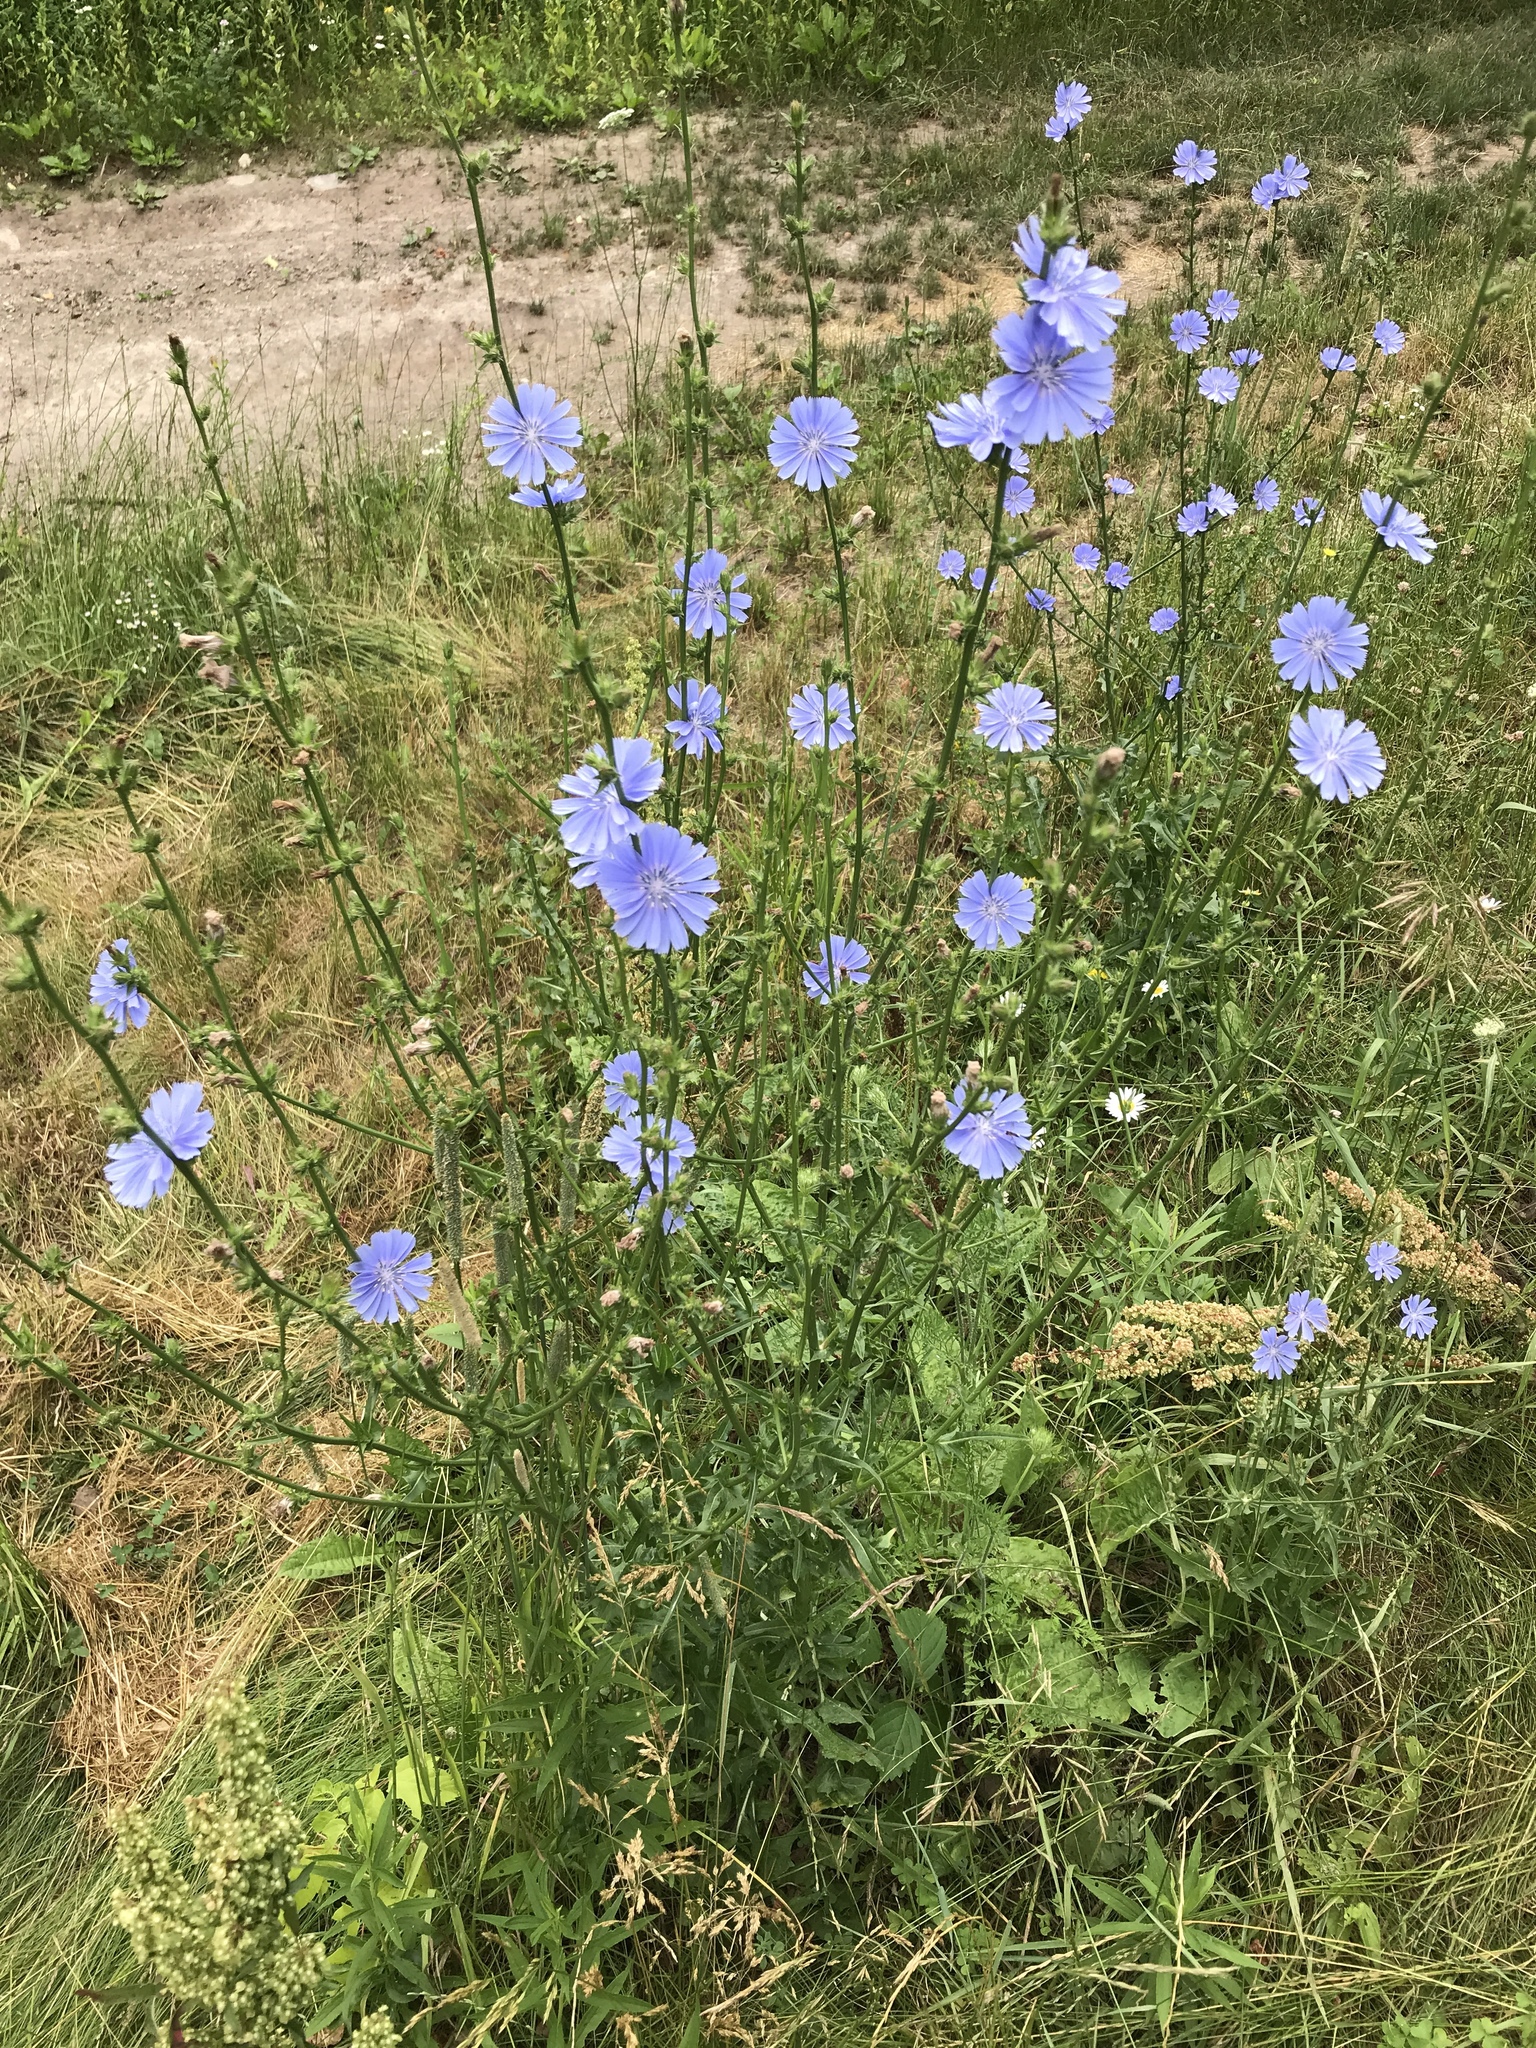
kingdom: Plantae
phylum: Tracheophyta
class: Magnoliopsida
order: Asterales
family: Asteraceae
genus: Cichorium
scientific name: Cichorium intybus
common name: Chicory
